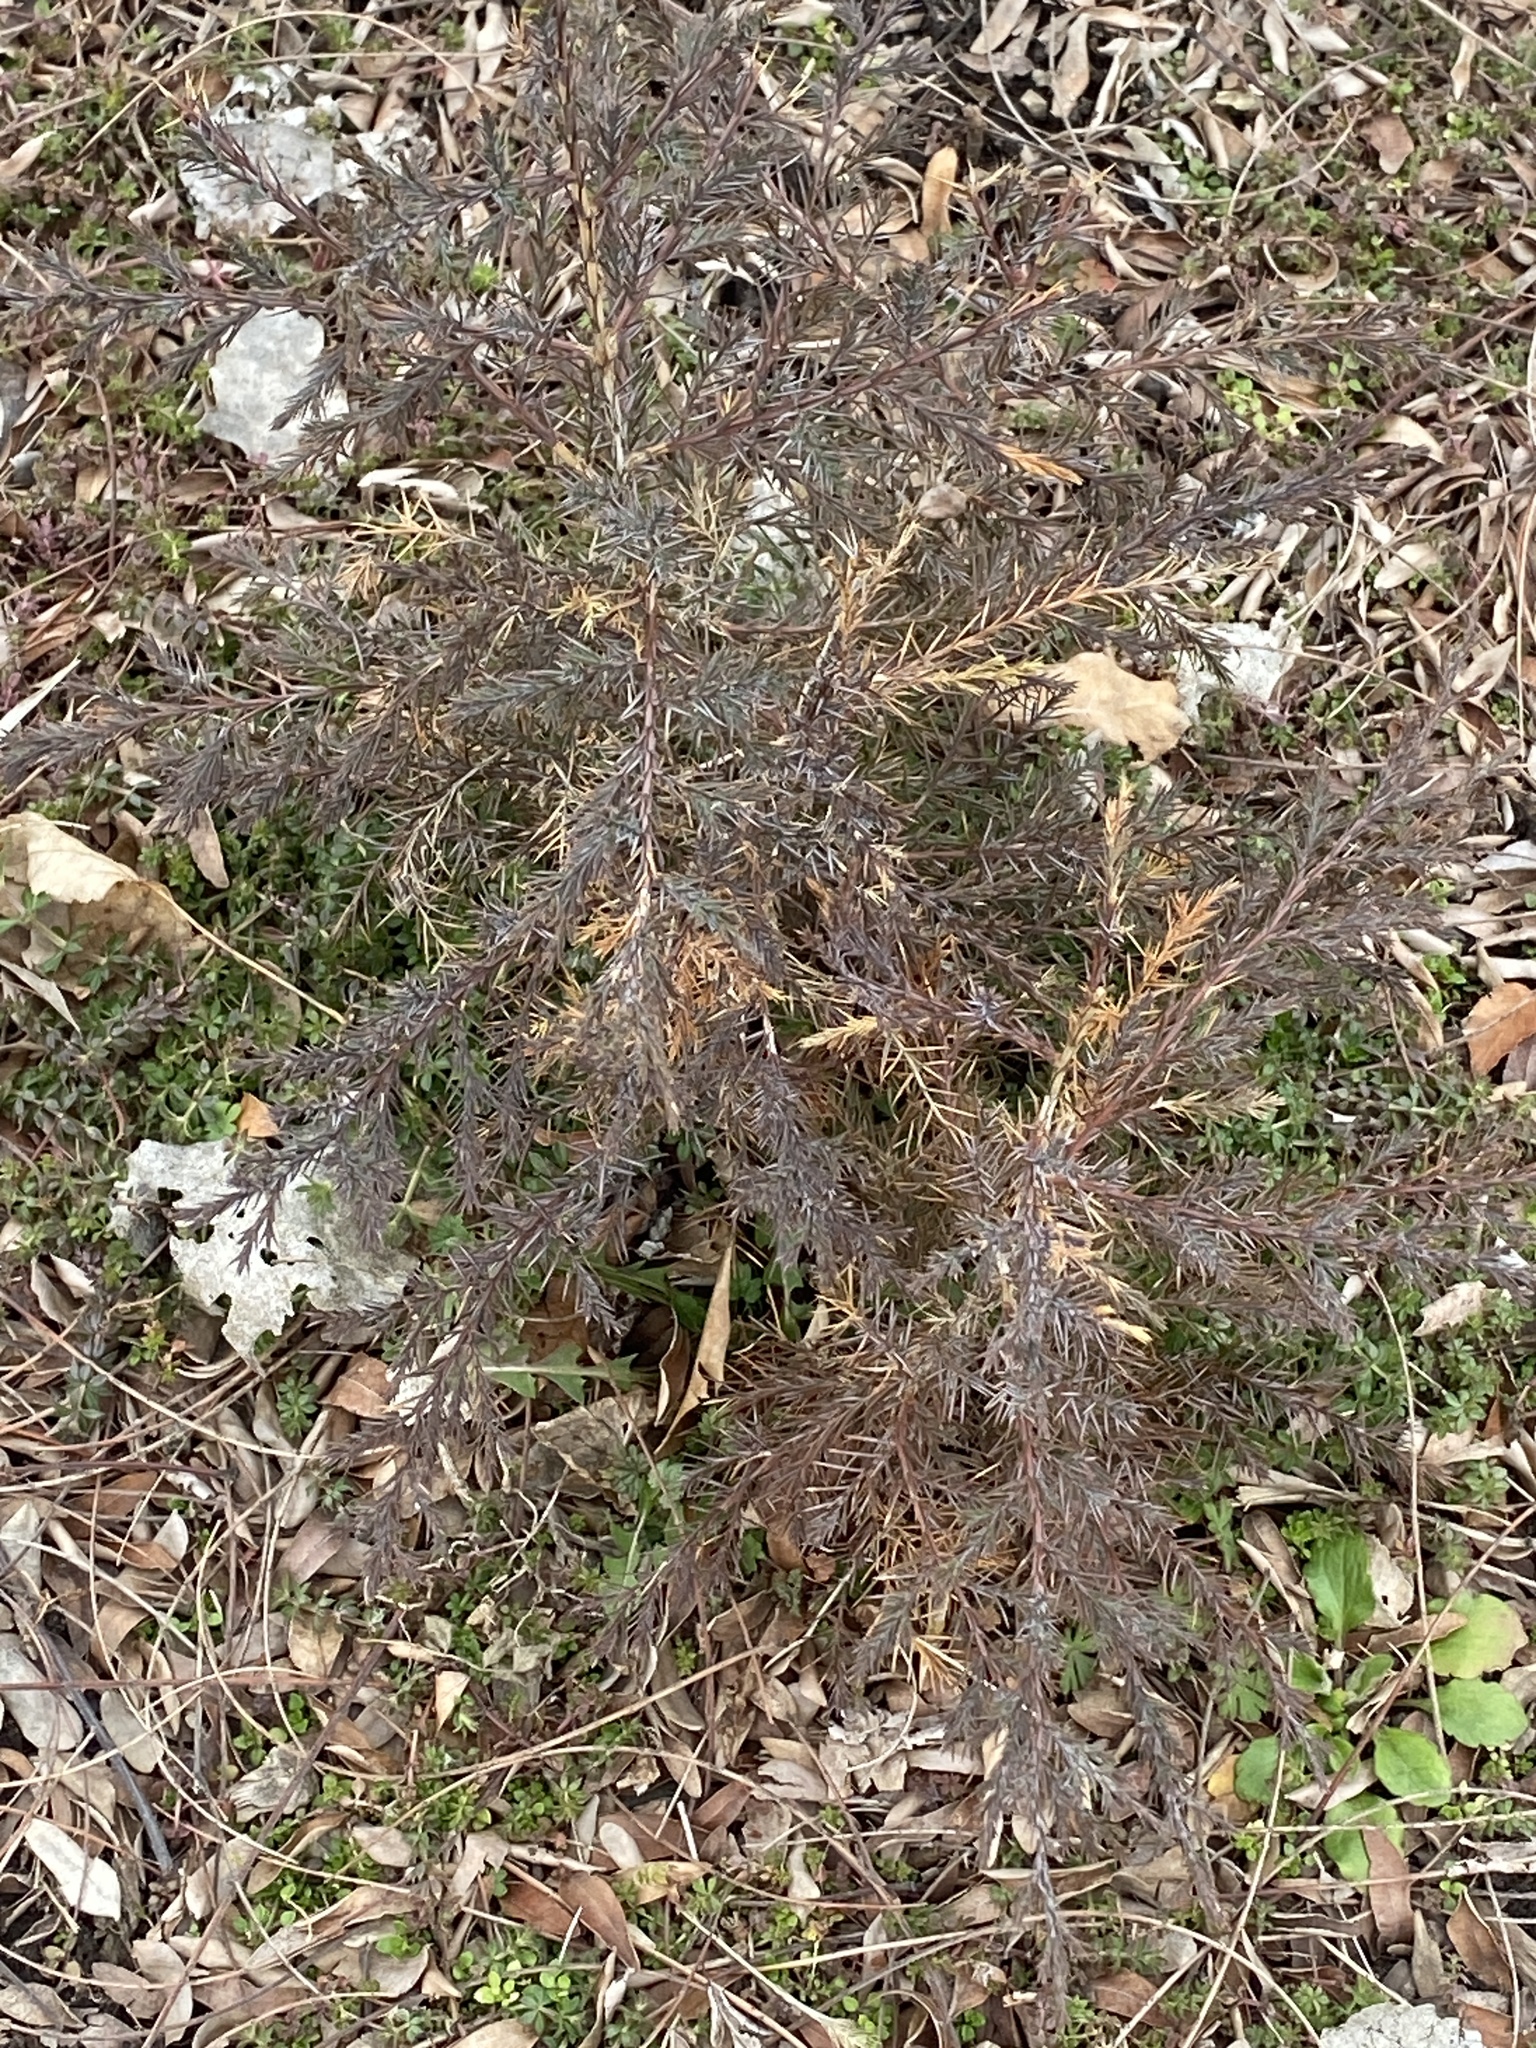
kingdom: Plantae
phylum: Tracheophyta
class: Pinopsida
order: Pinales
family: Cupressaceae
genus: Juniperus
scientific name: Juniperus virginiana
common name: Red juniper
